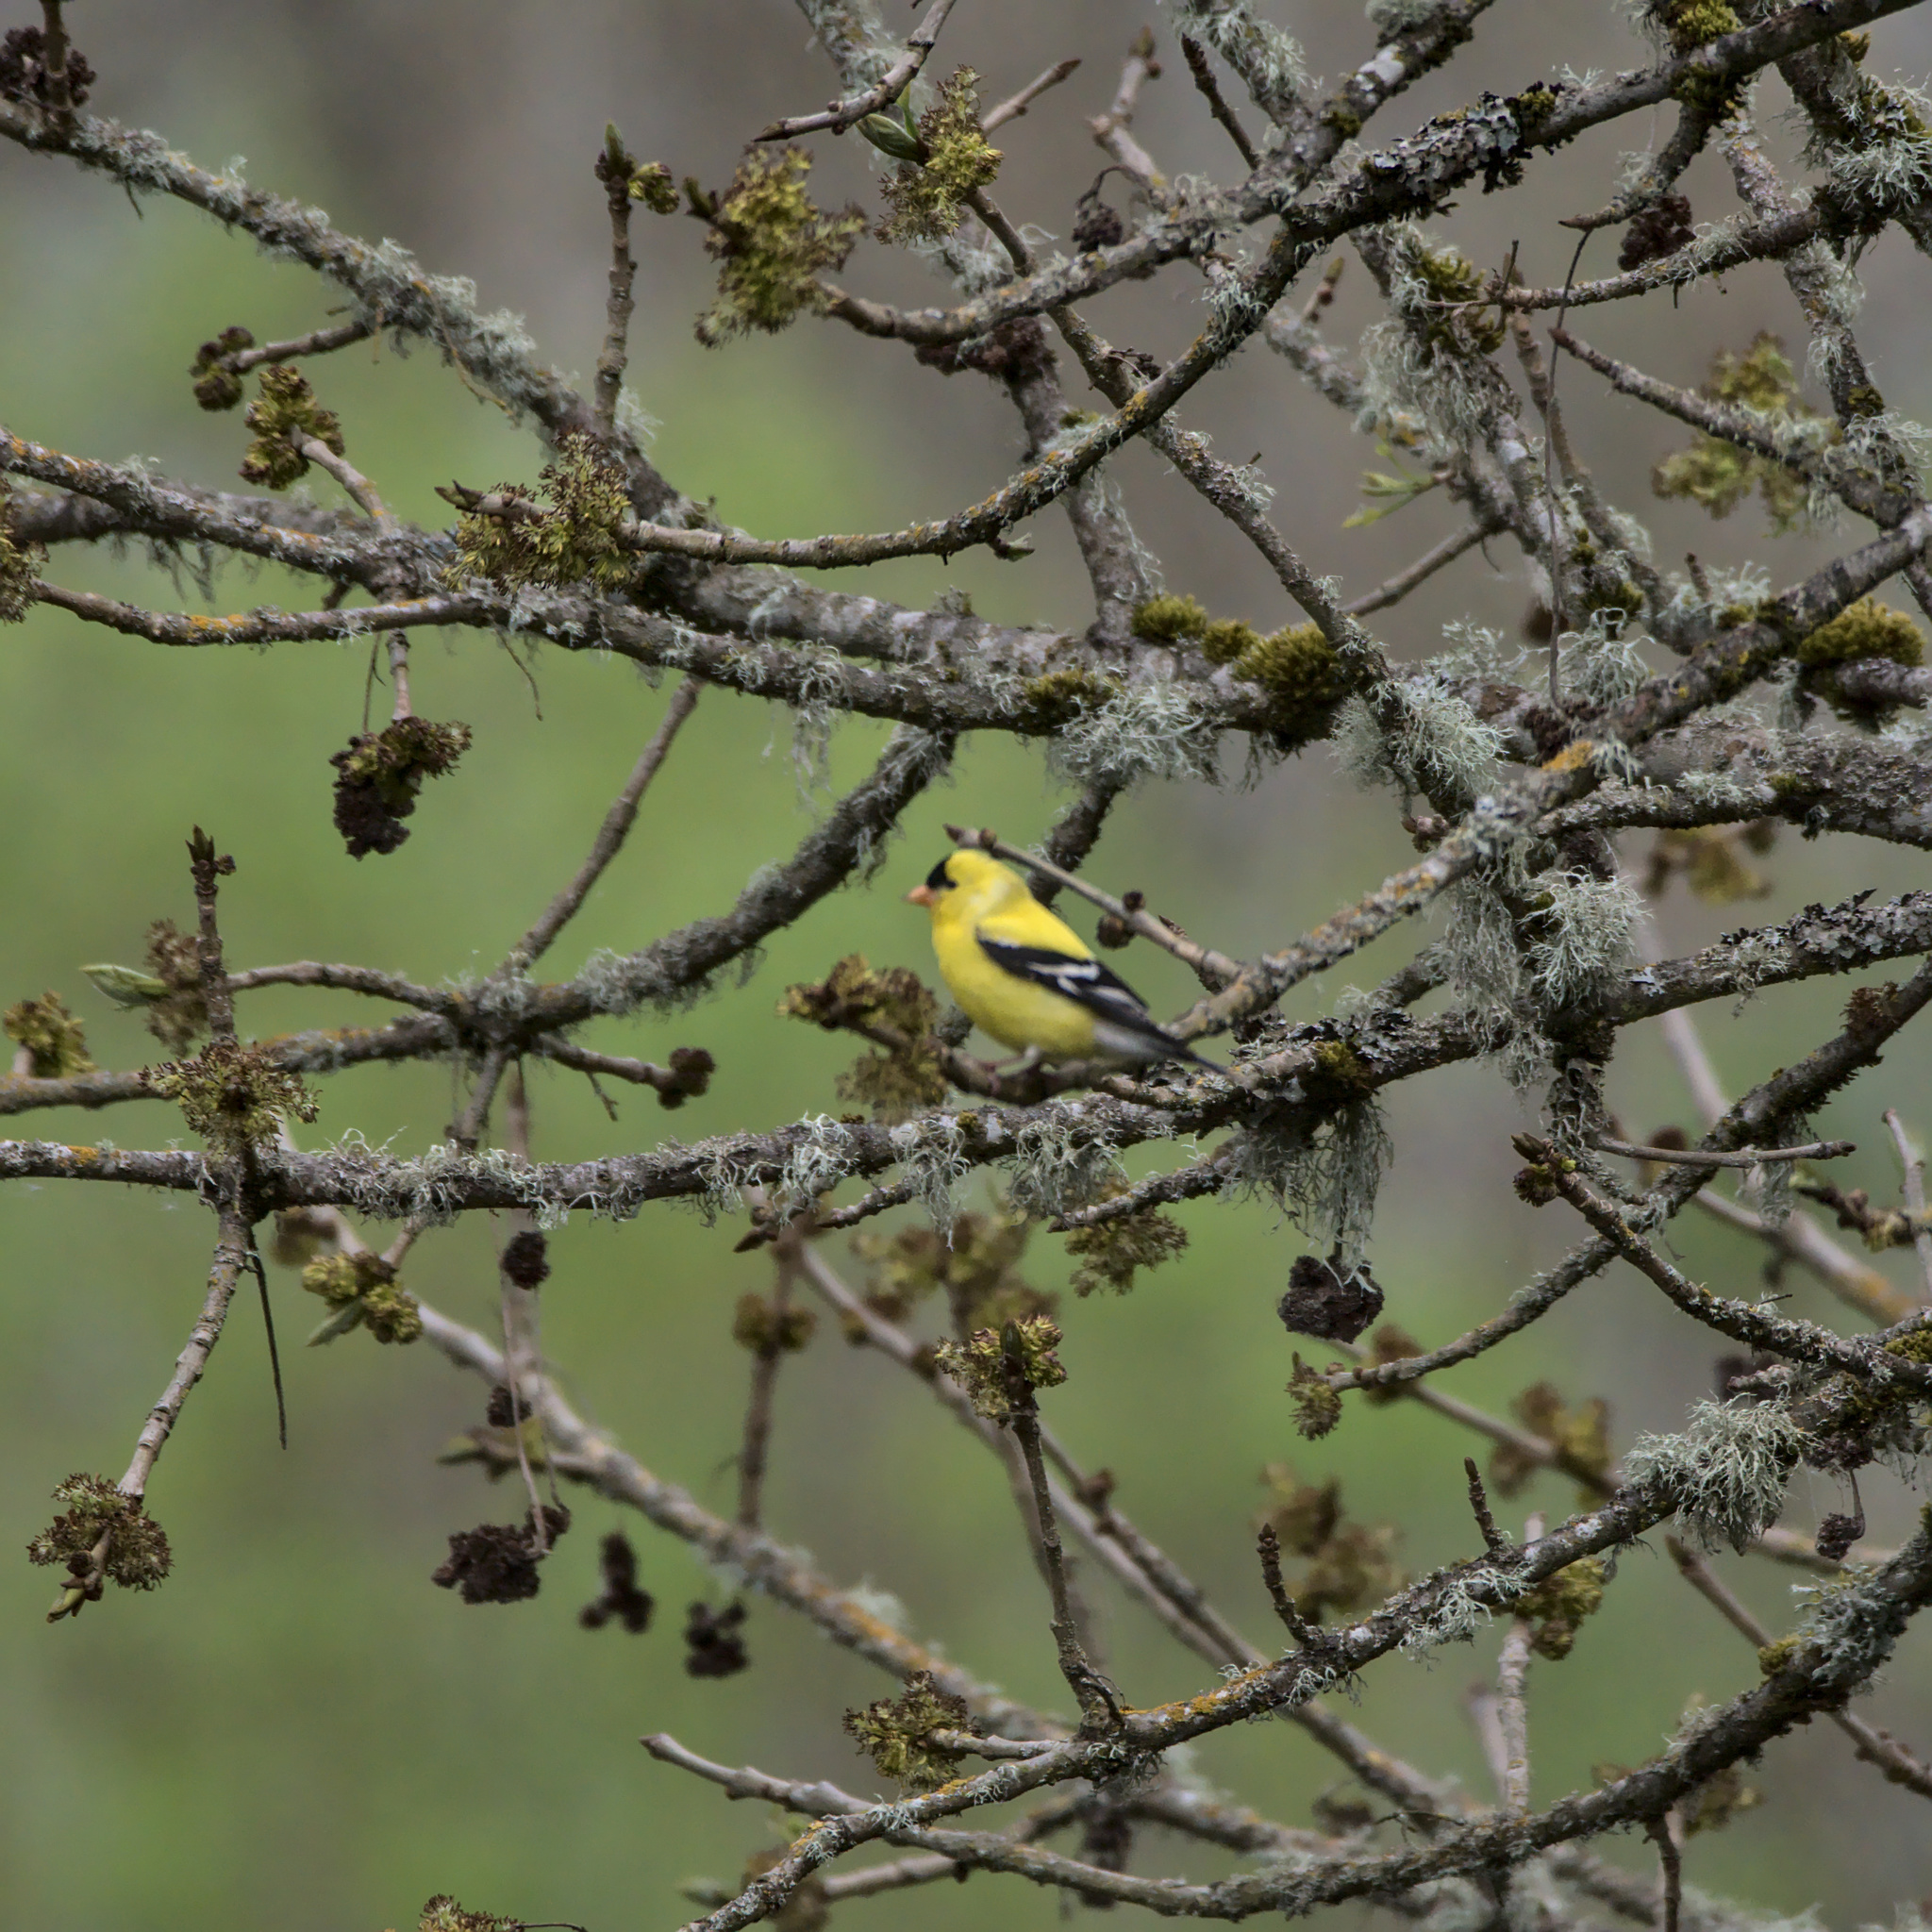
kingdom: Animalia
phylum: Chordata
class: Aves
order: Passeriformes
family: Fringillidae
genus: Spinus
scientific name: Spinus tristis
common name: American goldfinch
